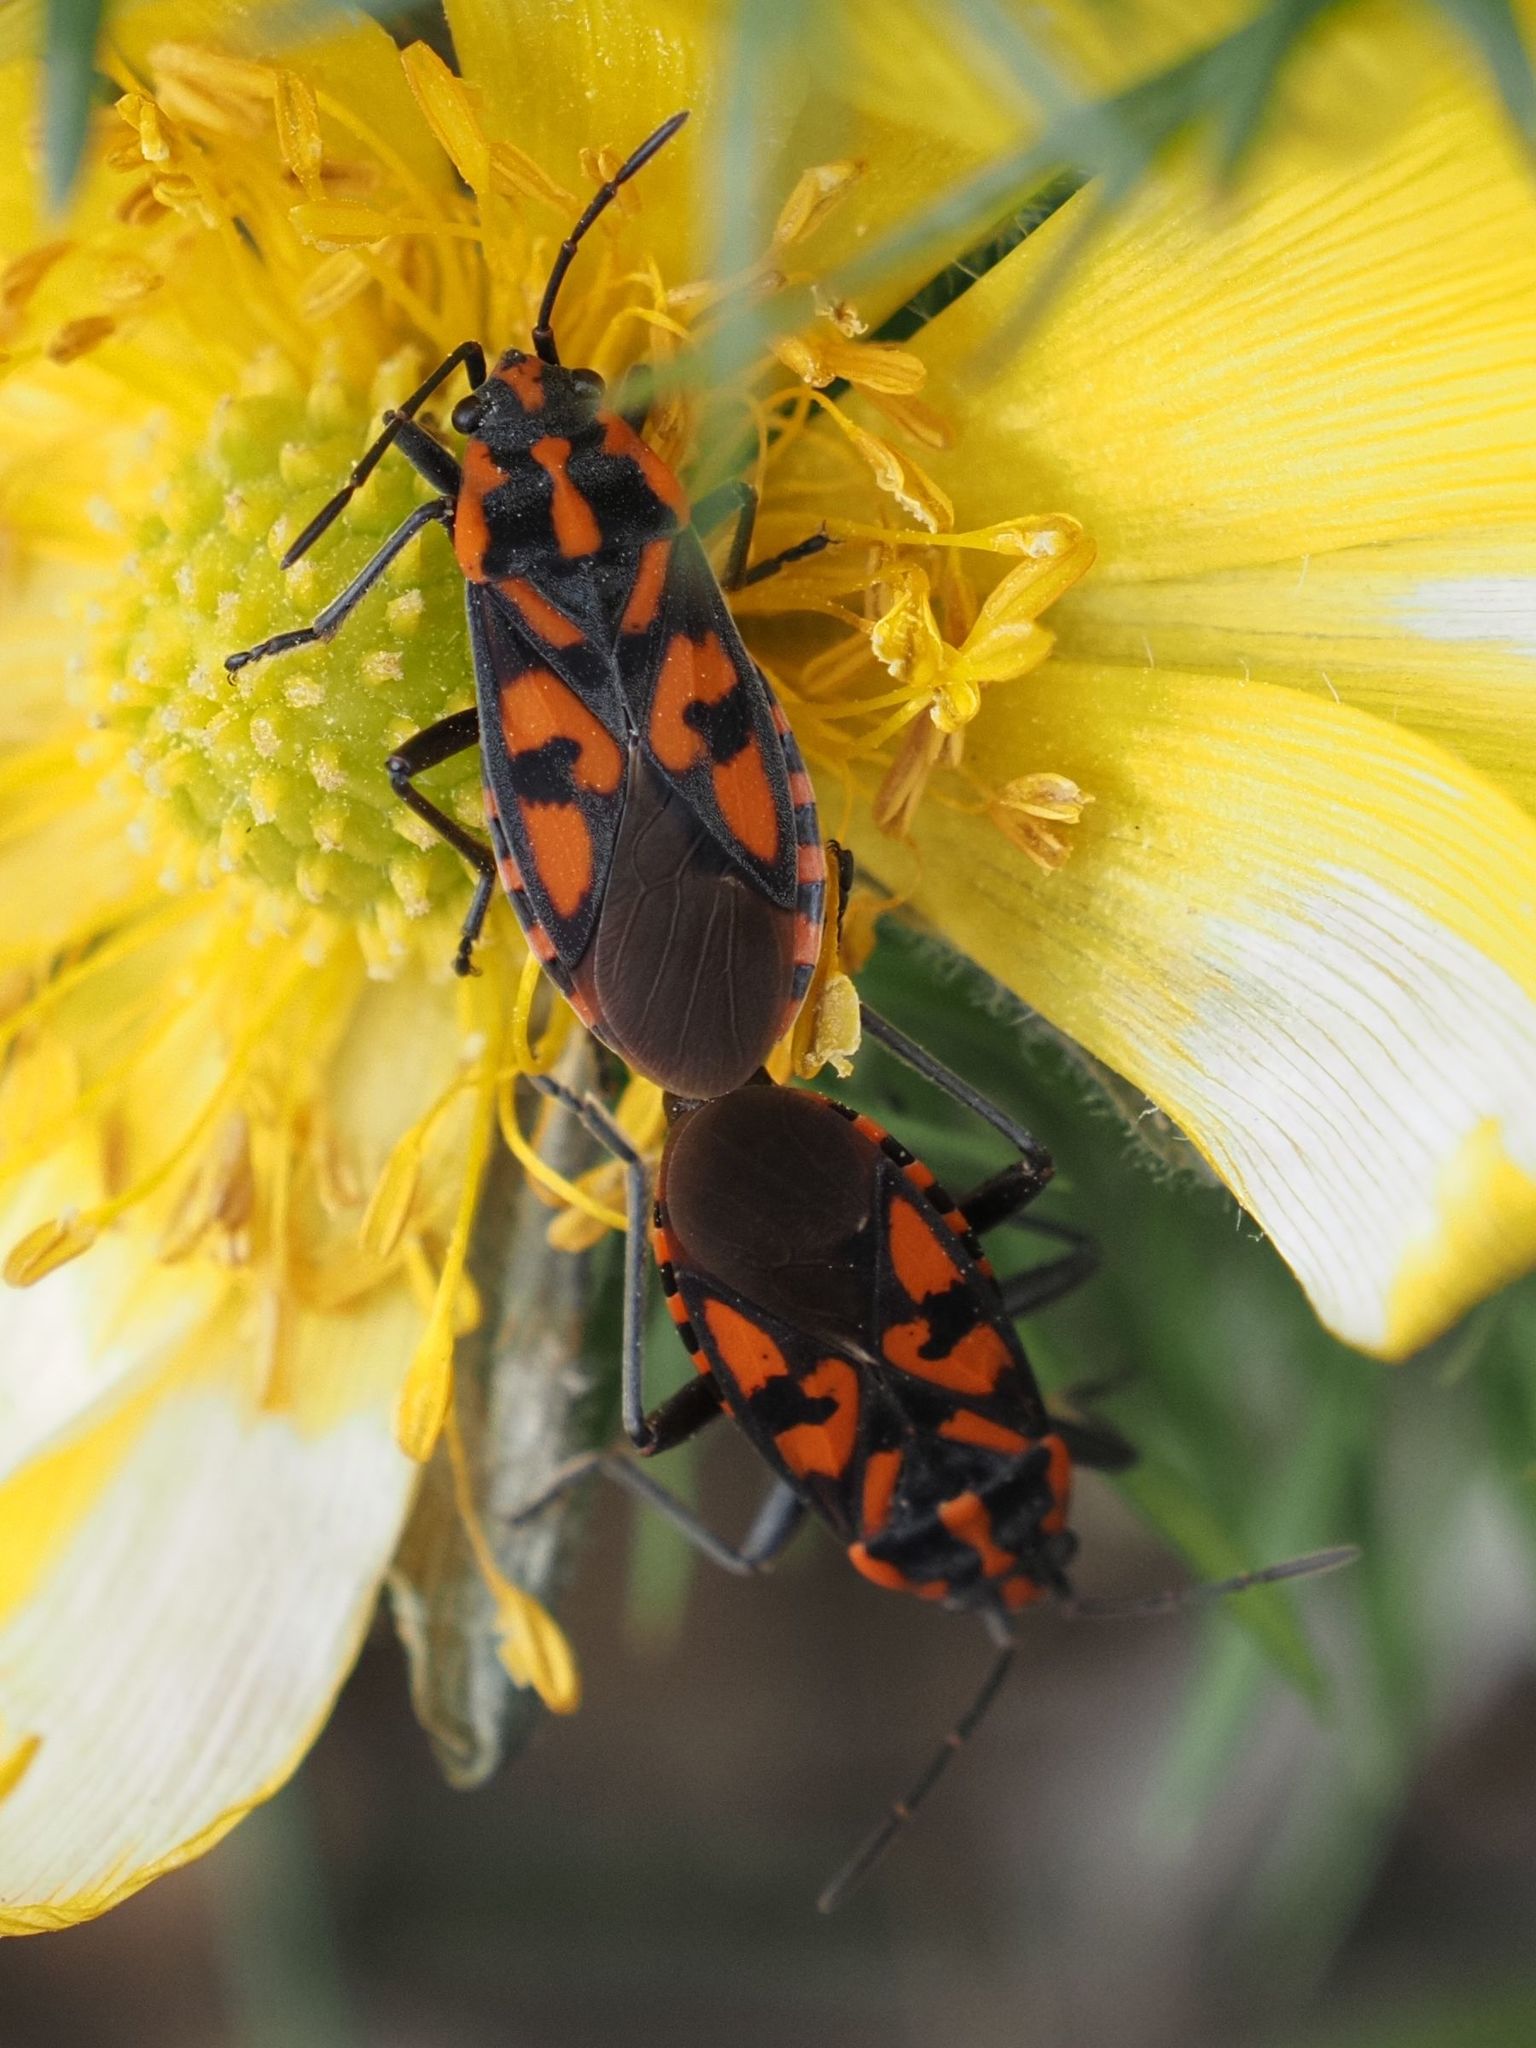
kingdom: Animalia
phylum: Arthropoda
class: Insecta
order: Hemiptera
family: Lygaeidae
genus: Spilostethus
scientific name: Spilostethus saxatilis
